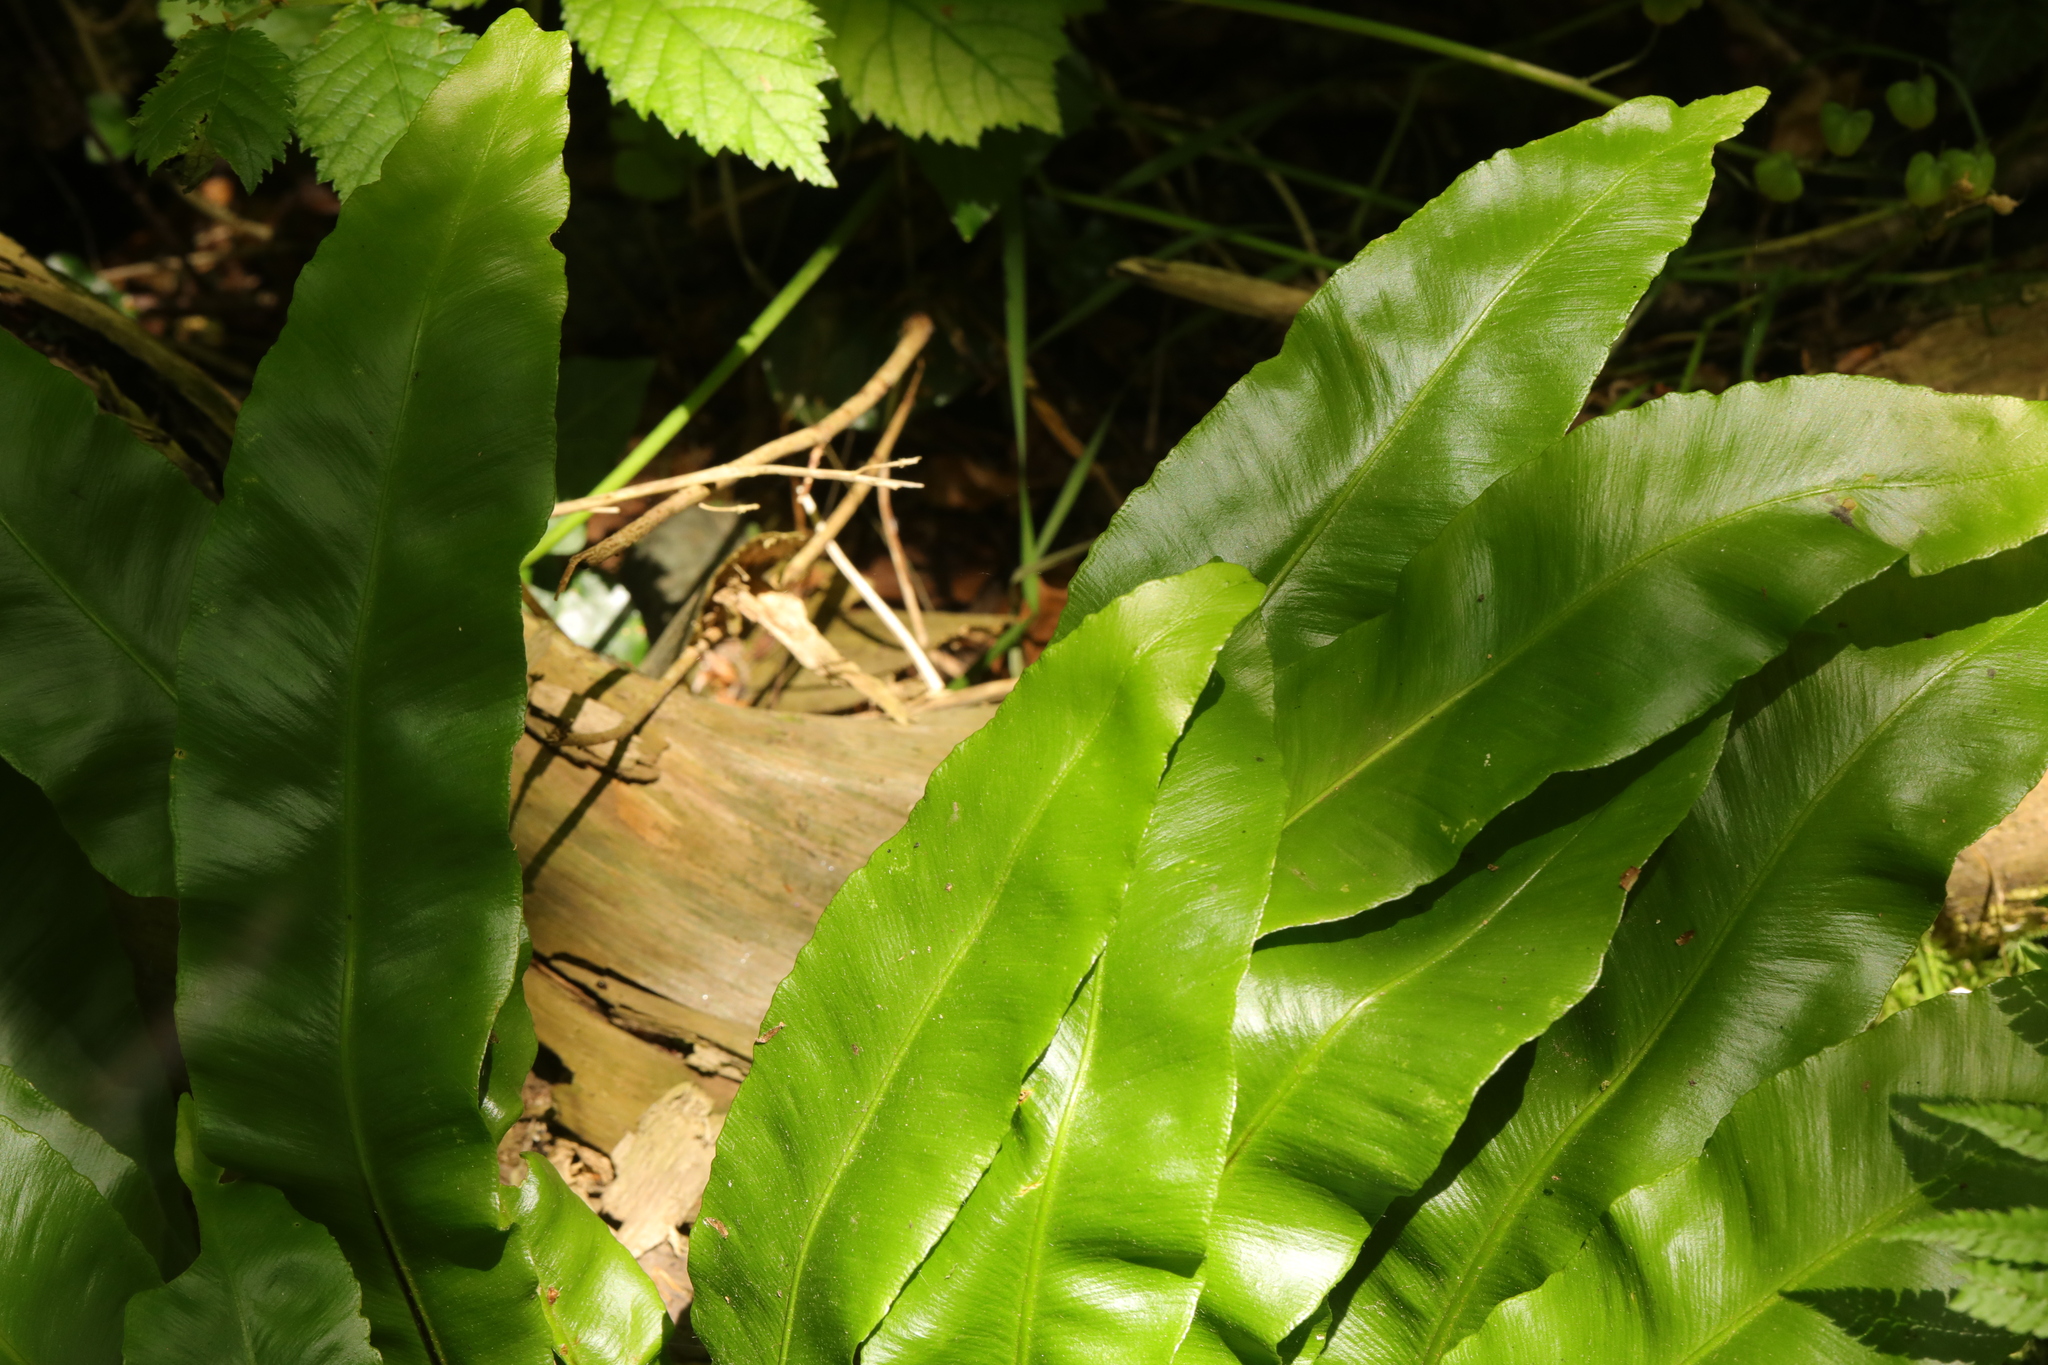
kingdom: Plantae
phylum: Tracheophyta
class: Polypodiopsida
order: Polypodiales
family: Aspleniaceae
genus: Asplenium
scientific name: Asplenium scolopendrium
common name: Hart's-tongue fern
